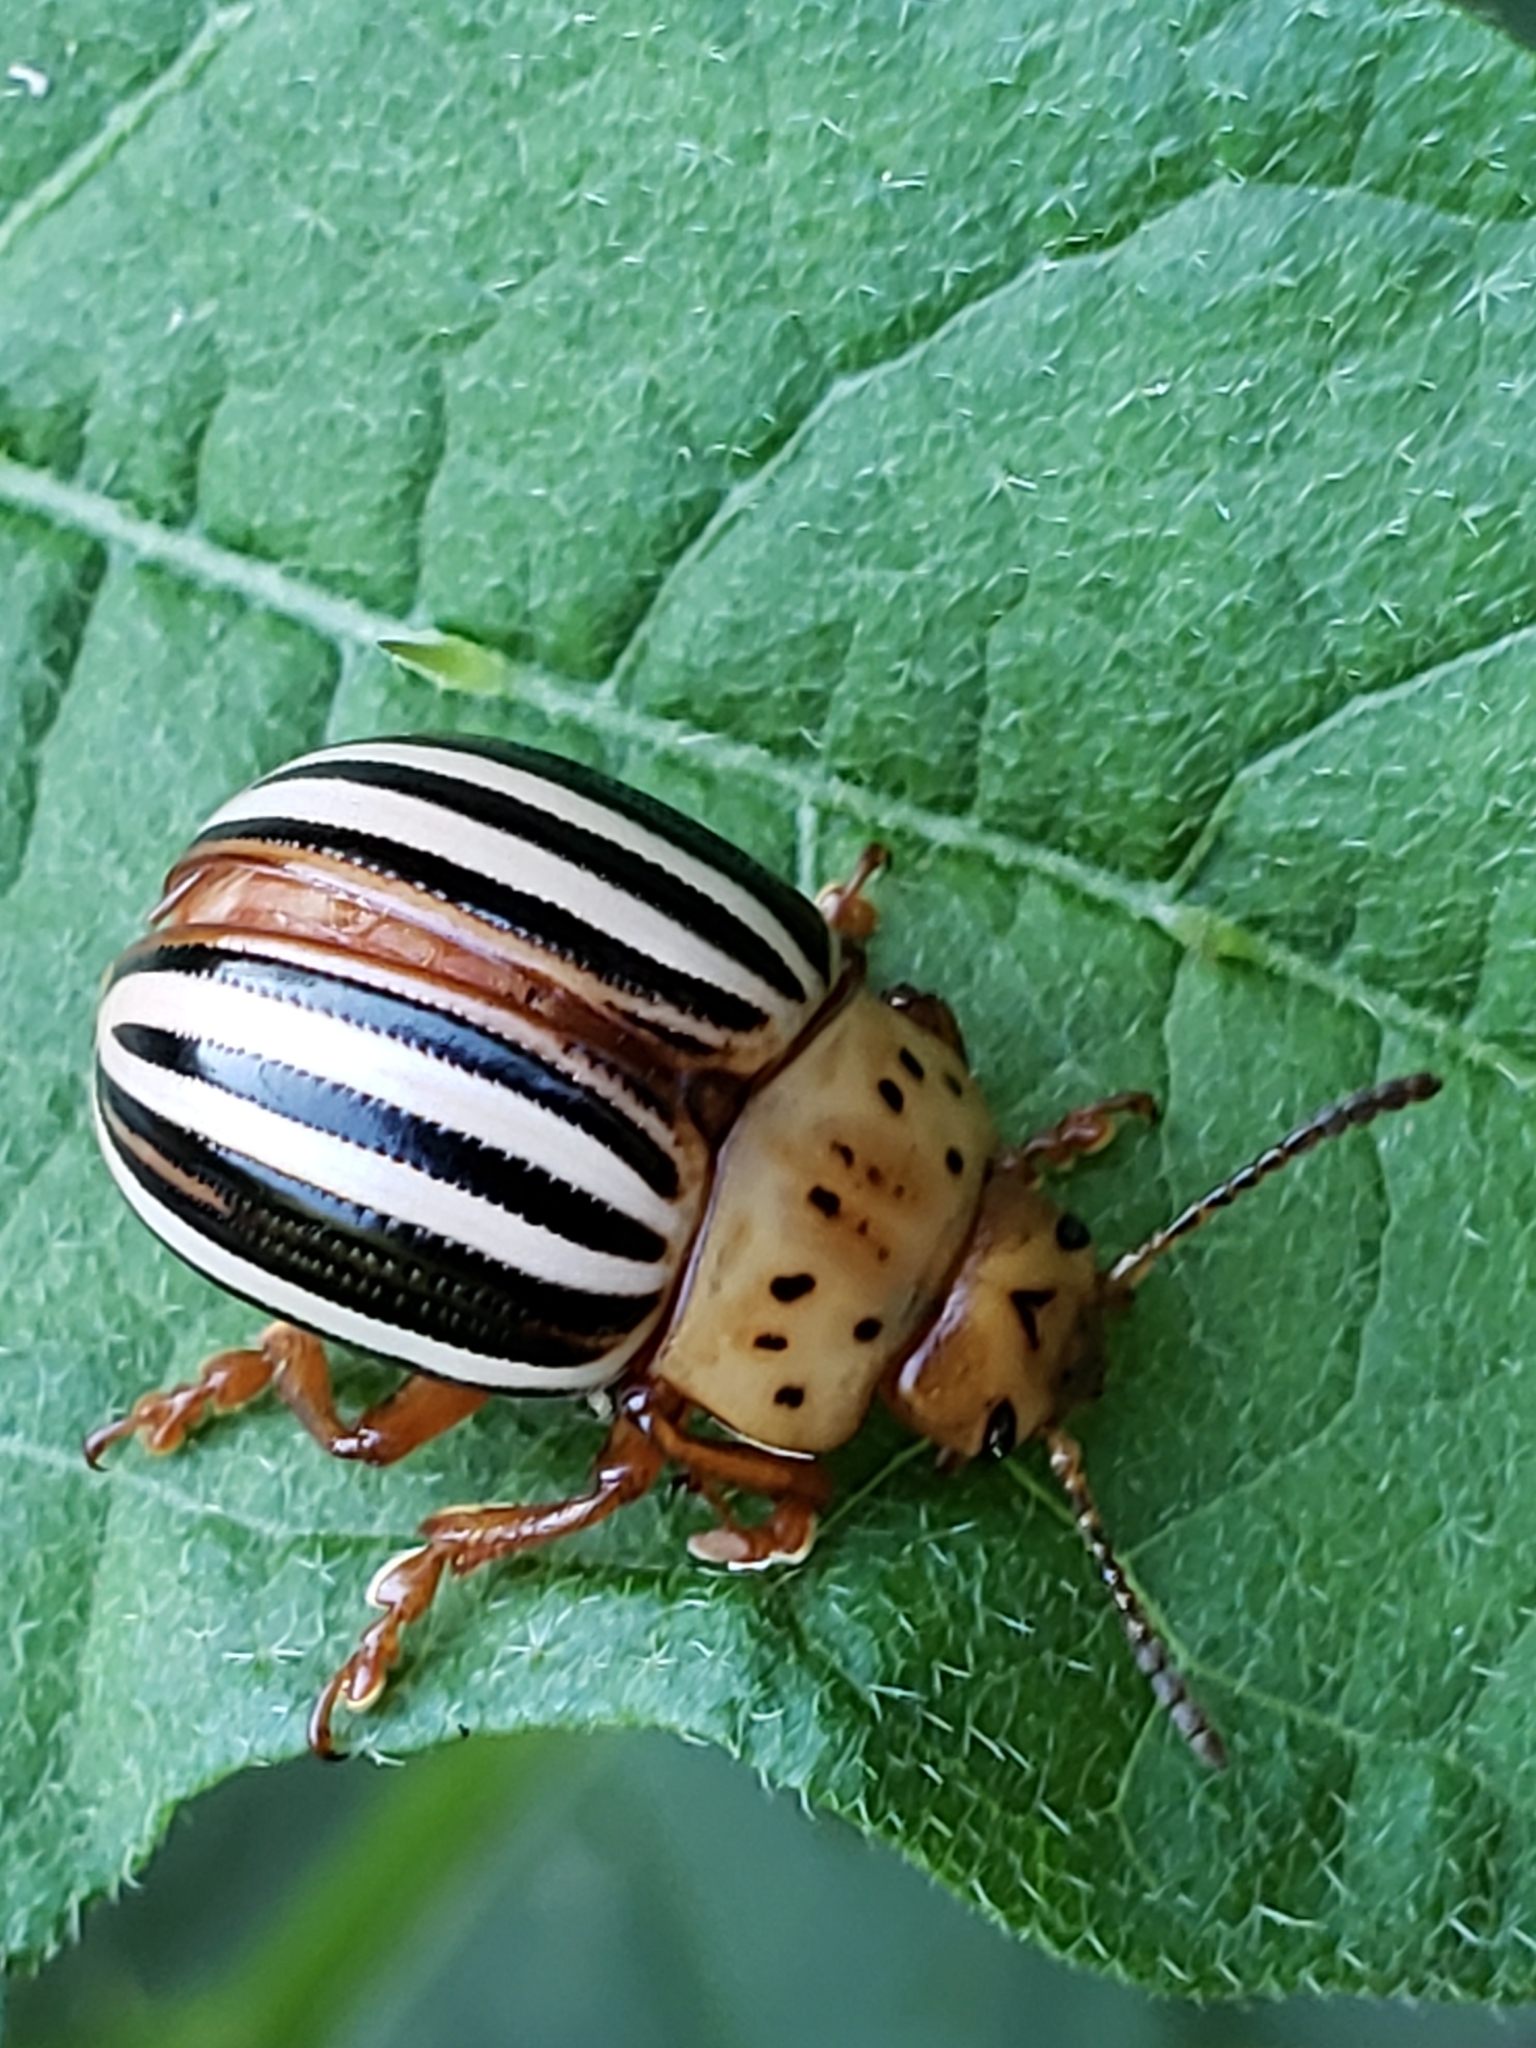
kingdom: Animalia
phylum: Arthropoda
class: Insecta
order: Coleoptera
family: Chrysomelidae
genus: Leptinotarsa
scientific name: Leptinotarsa juncta
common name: False potato beetle
